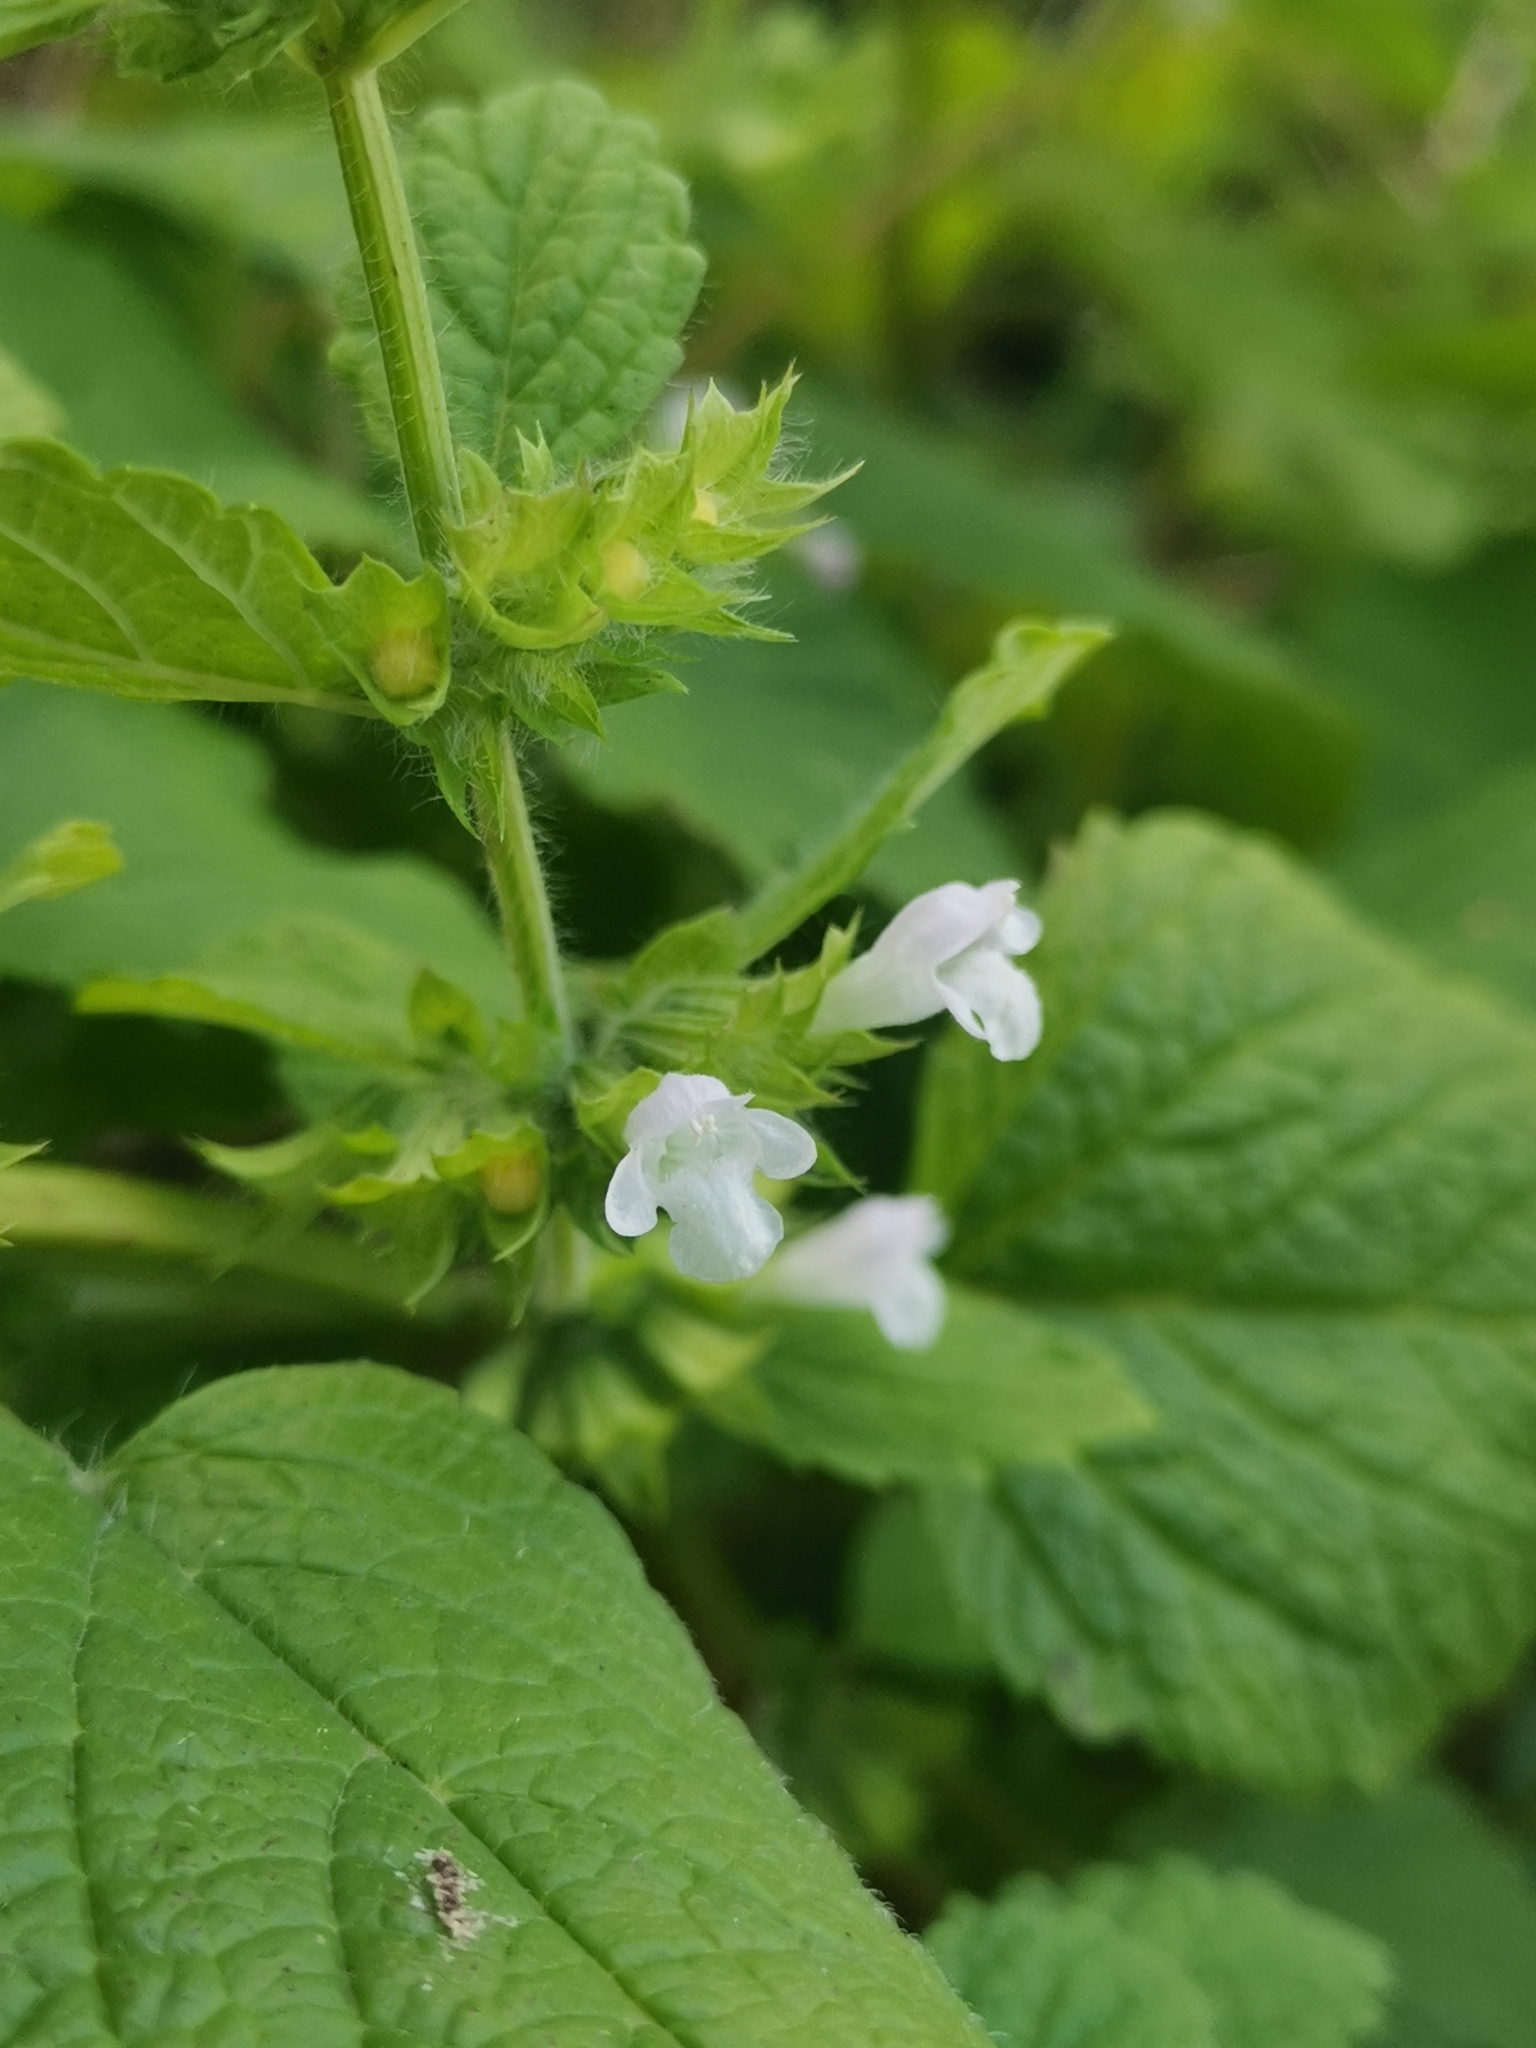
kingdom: Plantae
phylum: Tracheophyta
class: Magnoliopsida
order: Lamiales
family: Lamiaceae
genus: Melissa
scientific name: Melissa officinalis
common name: Balm
